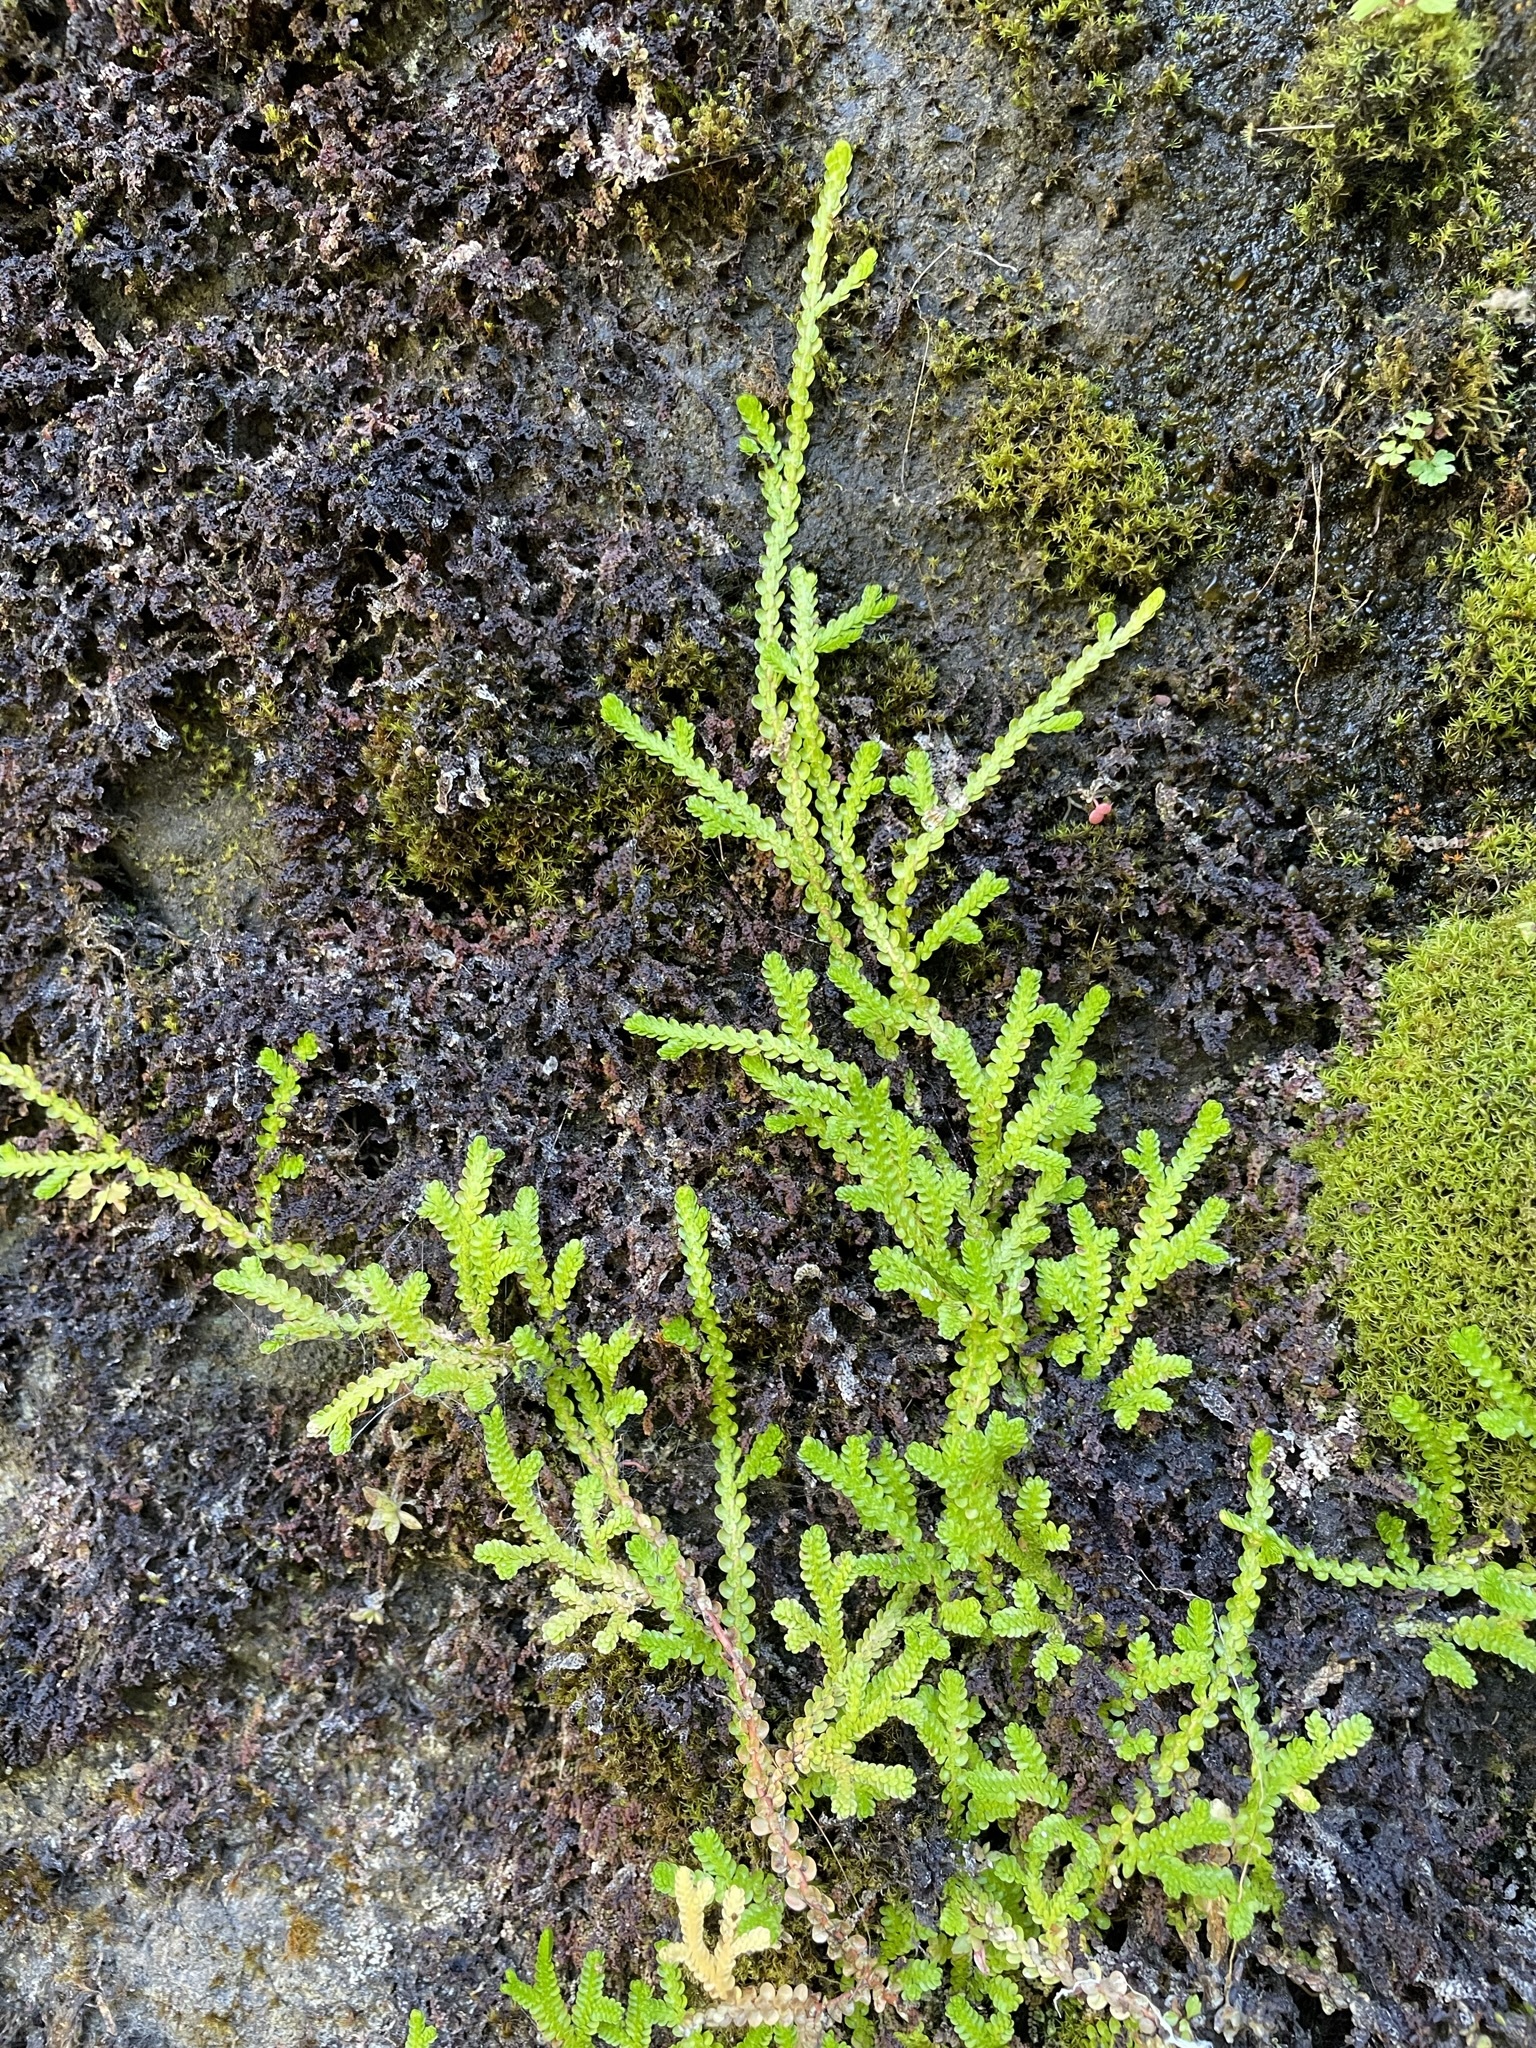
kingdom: Plantae
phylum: Tracheophyta
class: Lycopodiopsida
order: Selaginellales
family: Selaginellaceae
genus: Selaginella
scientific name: Selaginella douglasii
